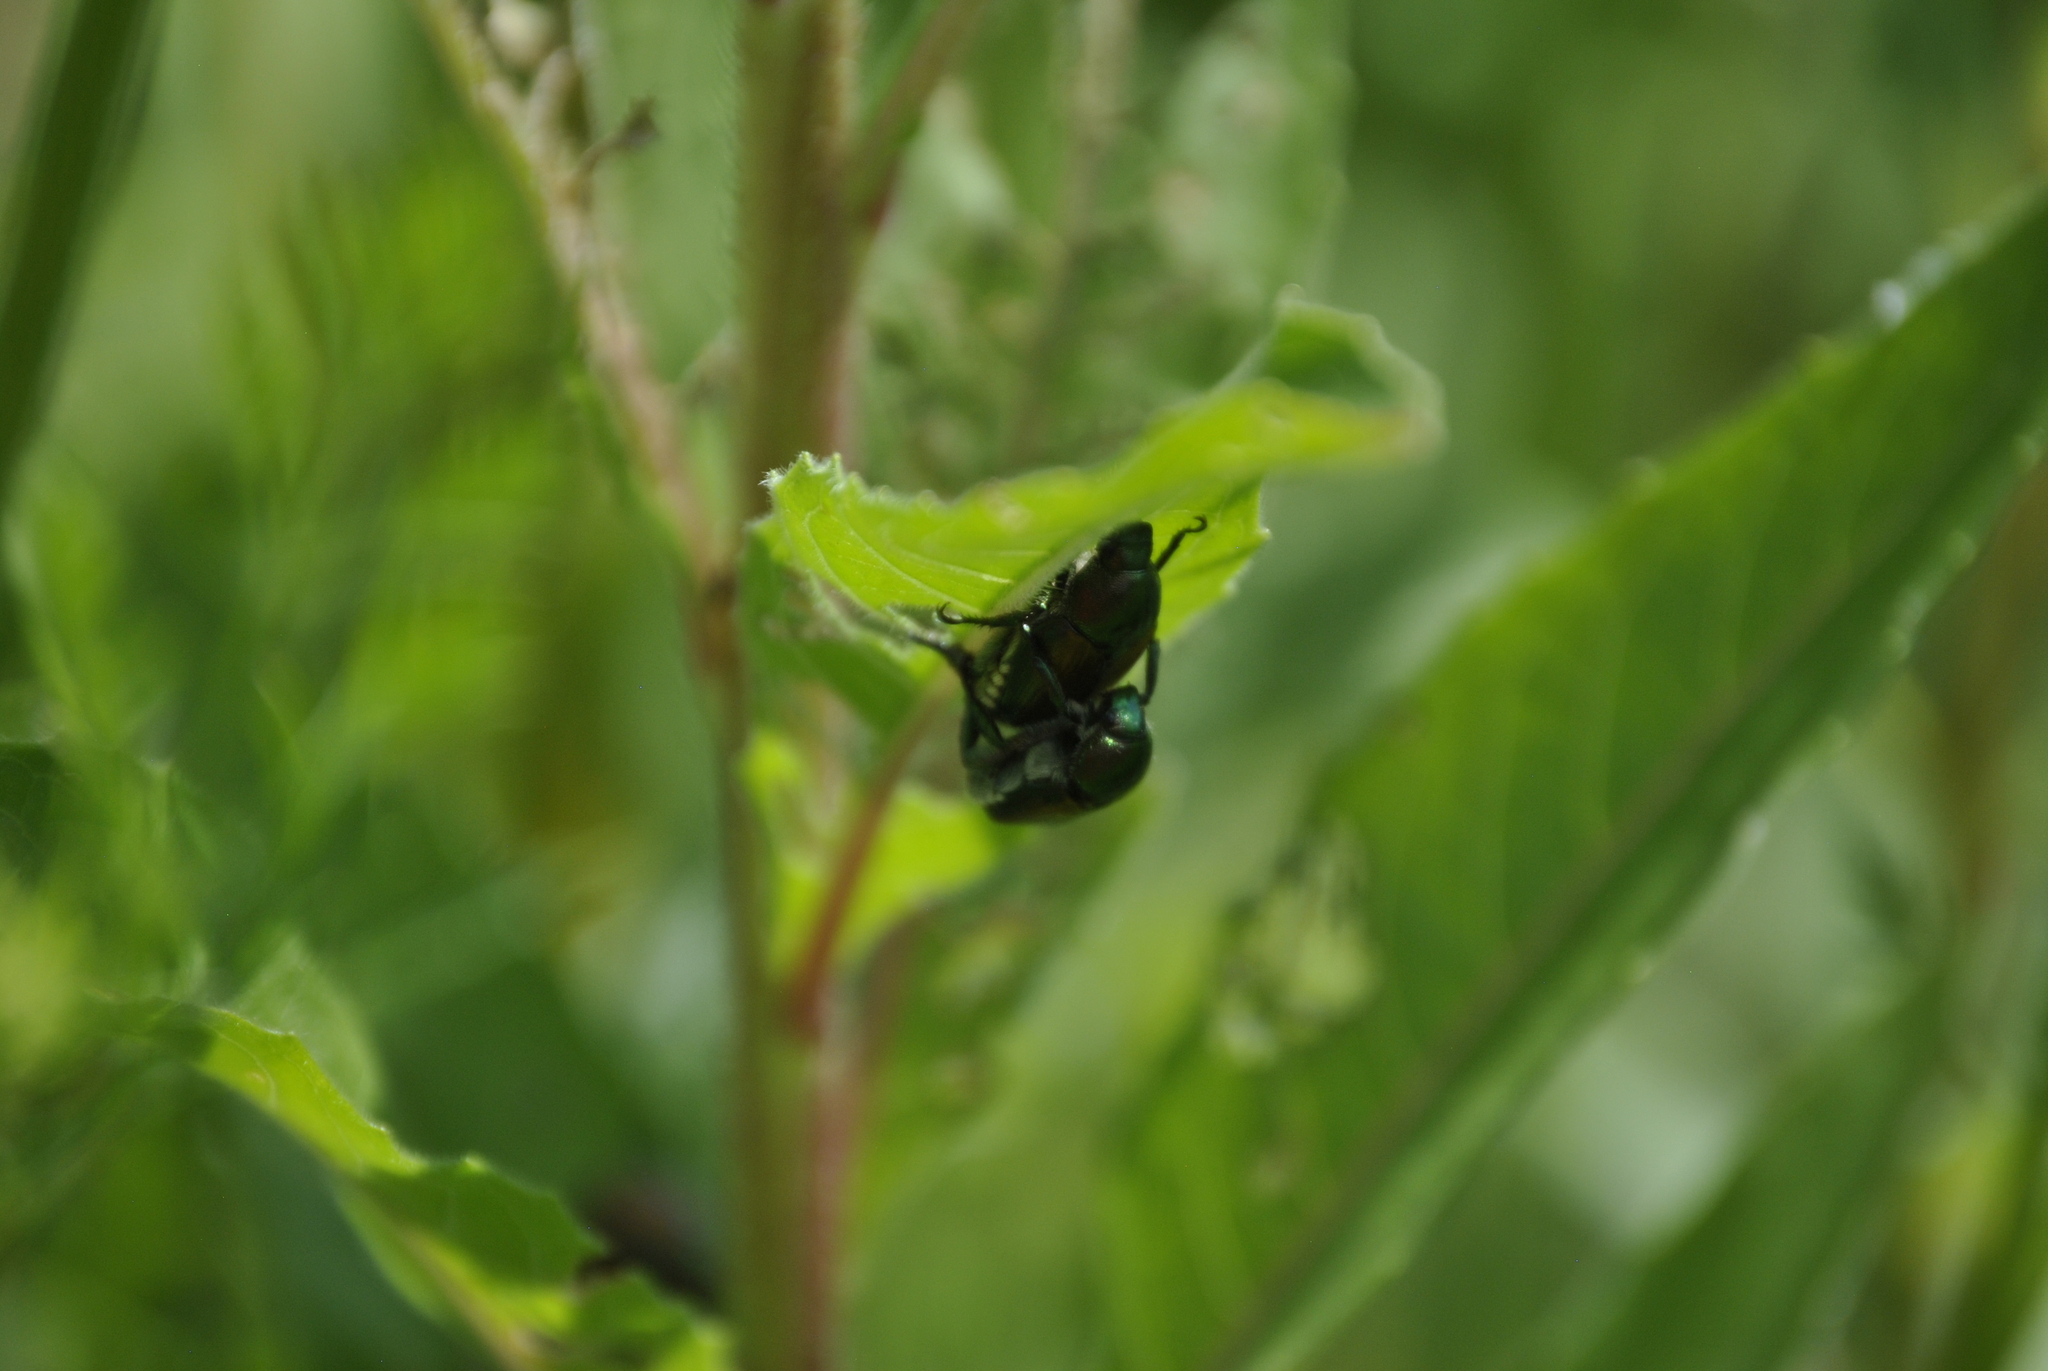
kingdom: Animalia
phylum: Arthropoda
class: Insecta
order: Coleoptera
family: Scarabaeidae
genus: Popillia
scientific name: Popillia japonica
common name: Japanese beetle
